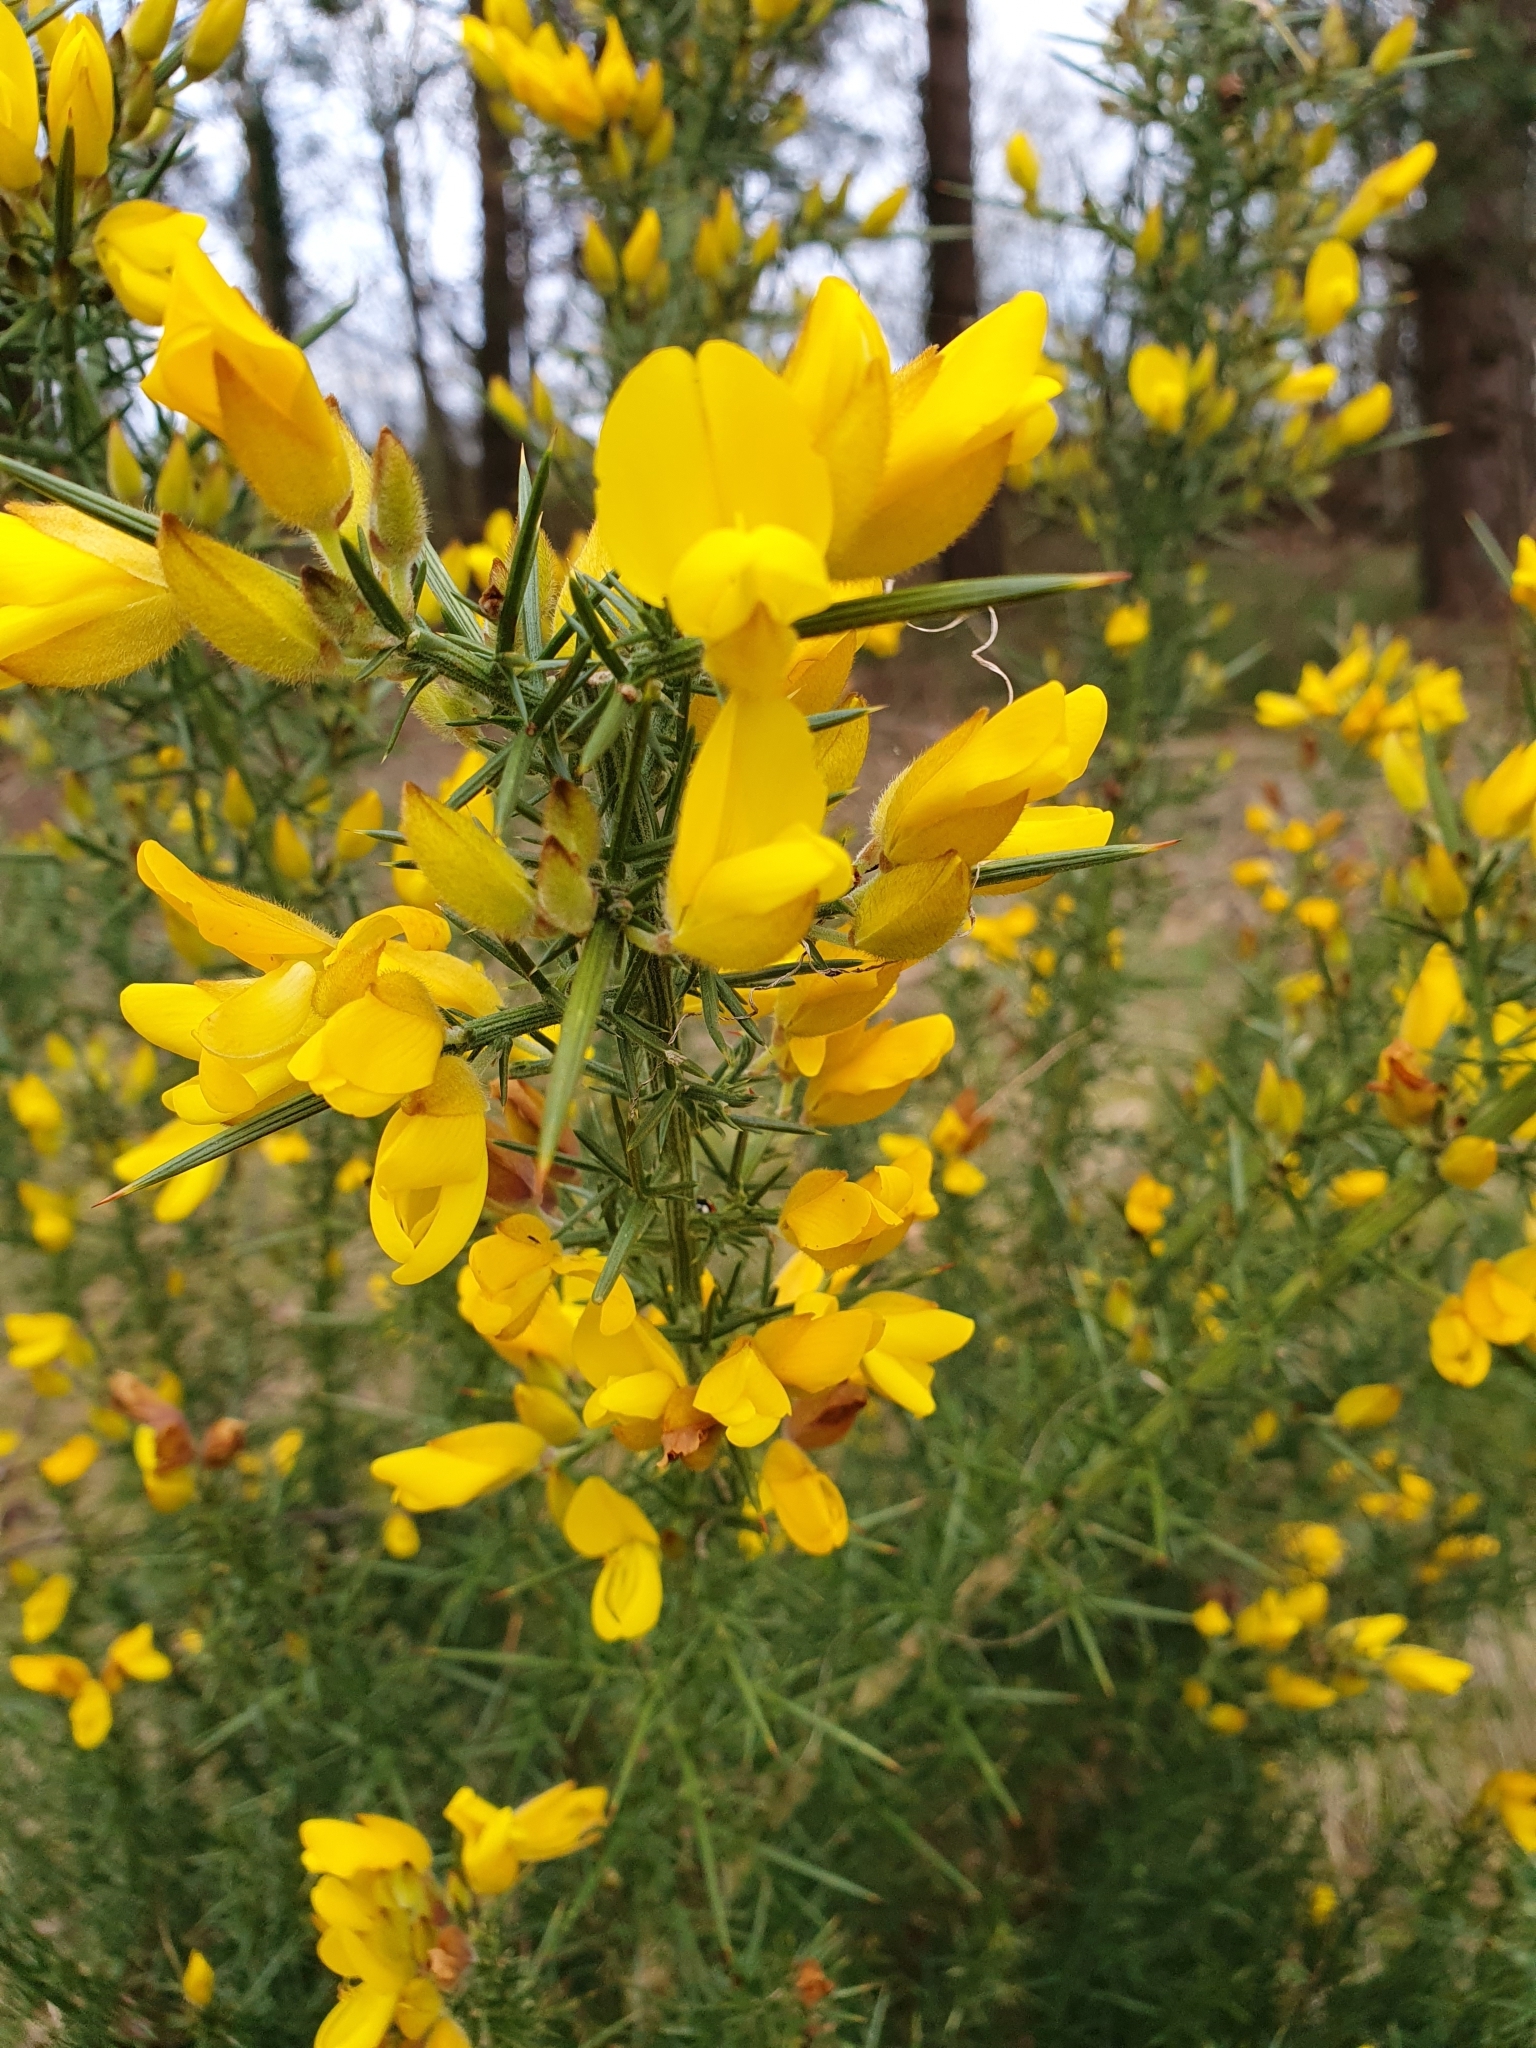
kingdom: Plantae
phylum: Tracheophyta
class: Magnoliopsida
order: Fabales
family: Fabaceae
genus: Ulex
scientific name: Ulex europaeus
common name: Common gorse
